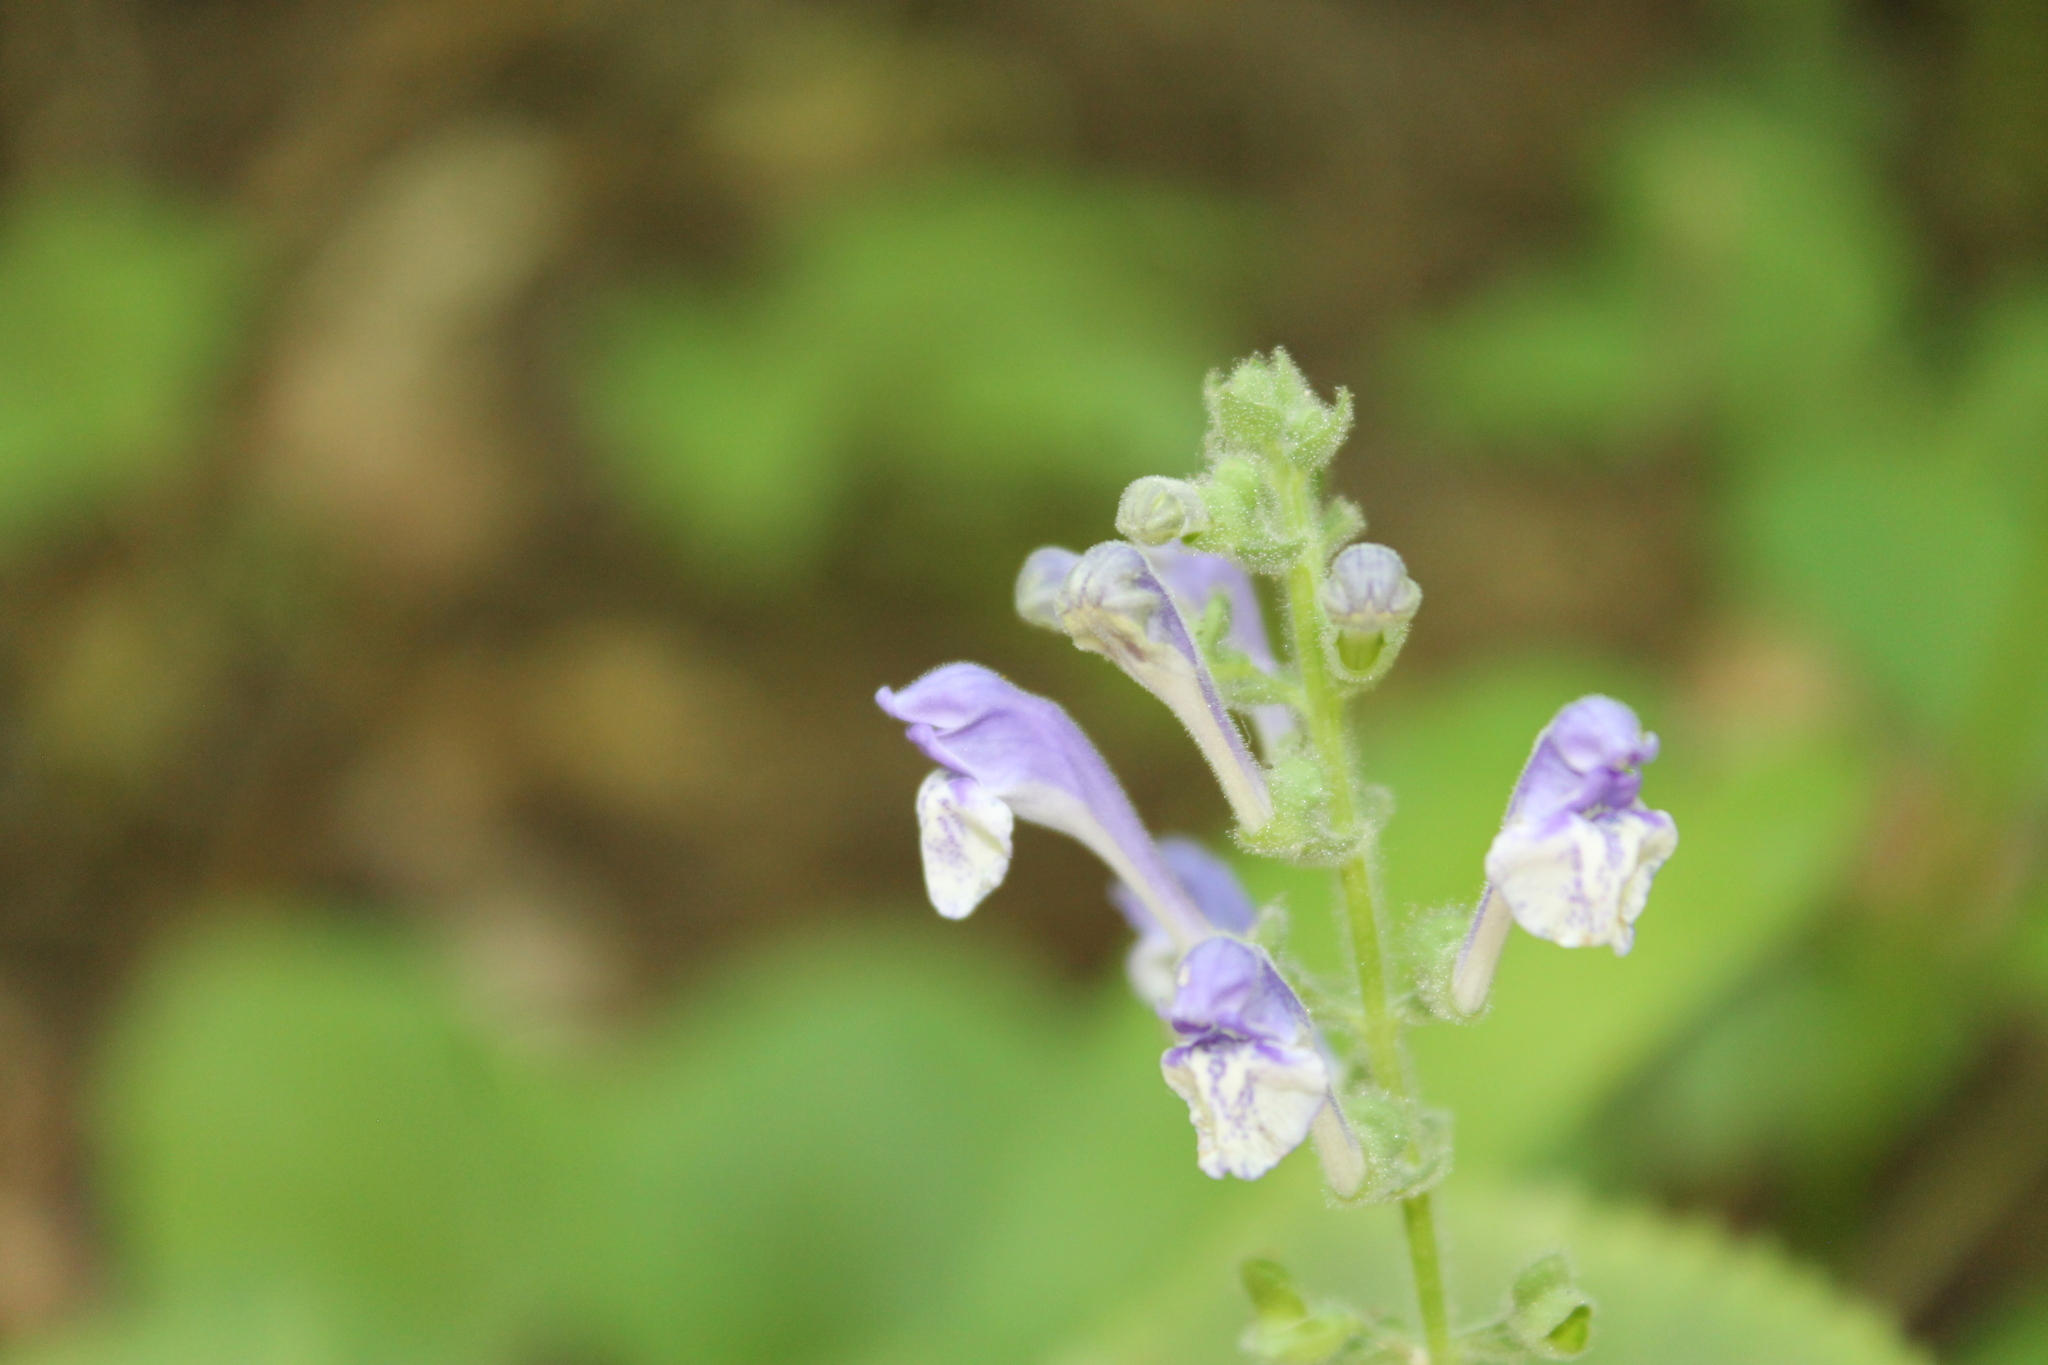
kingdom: Plantae
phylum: Tracheophyta
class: Magnoliopsida
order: Lamiales
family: Lamiaceae
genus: Scutellaria
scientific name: Scutellaria ovata
